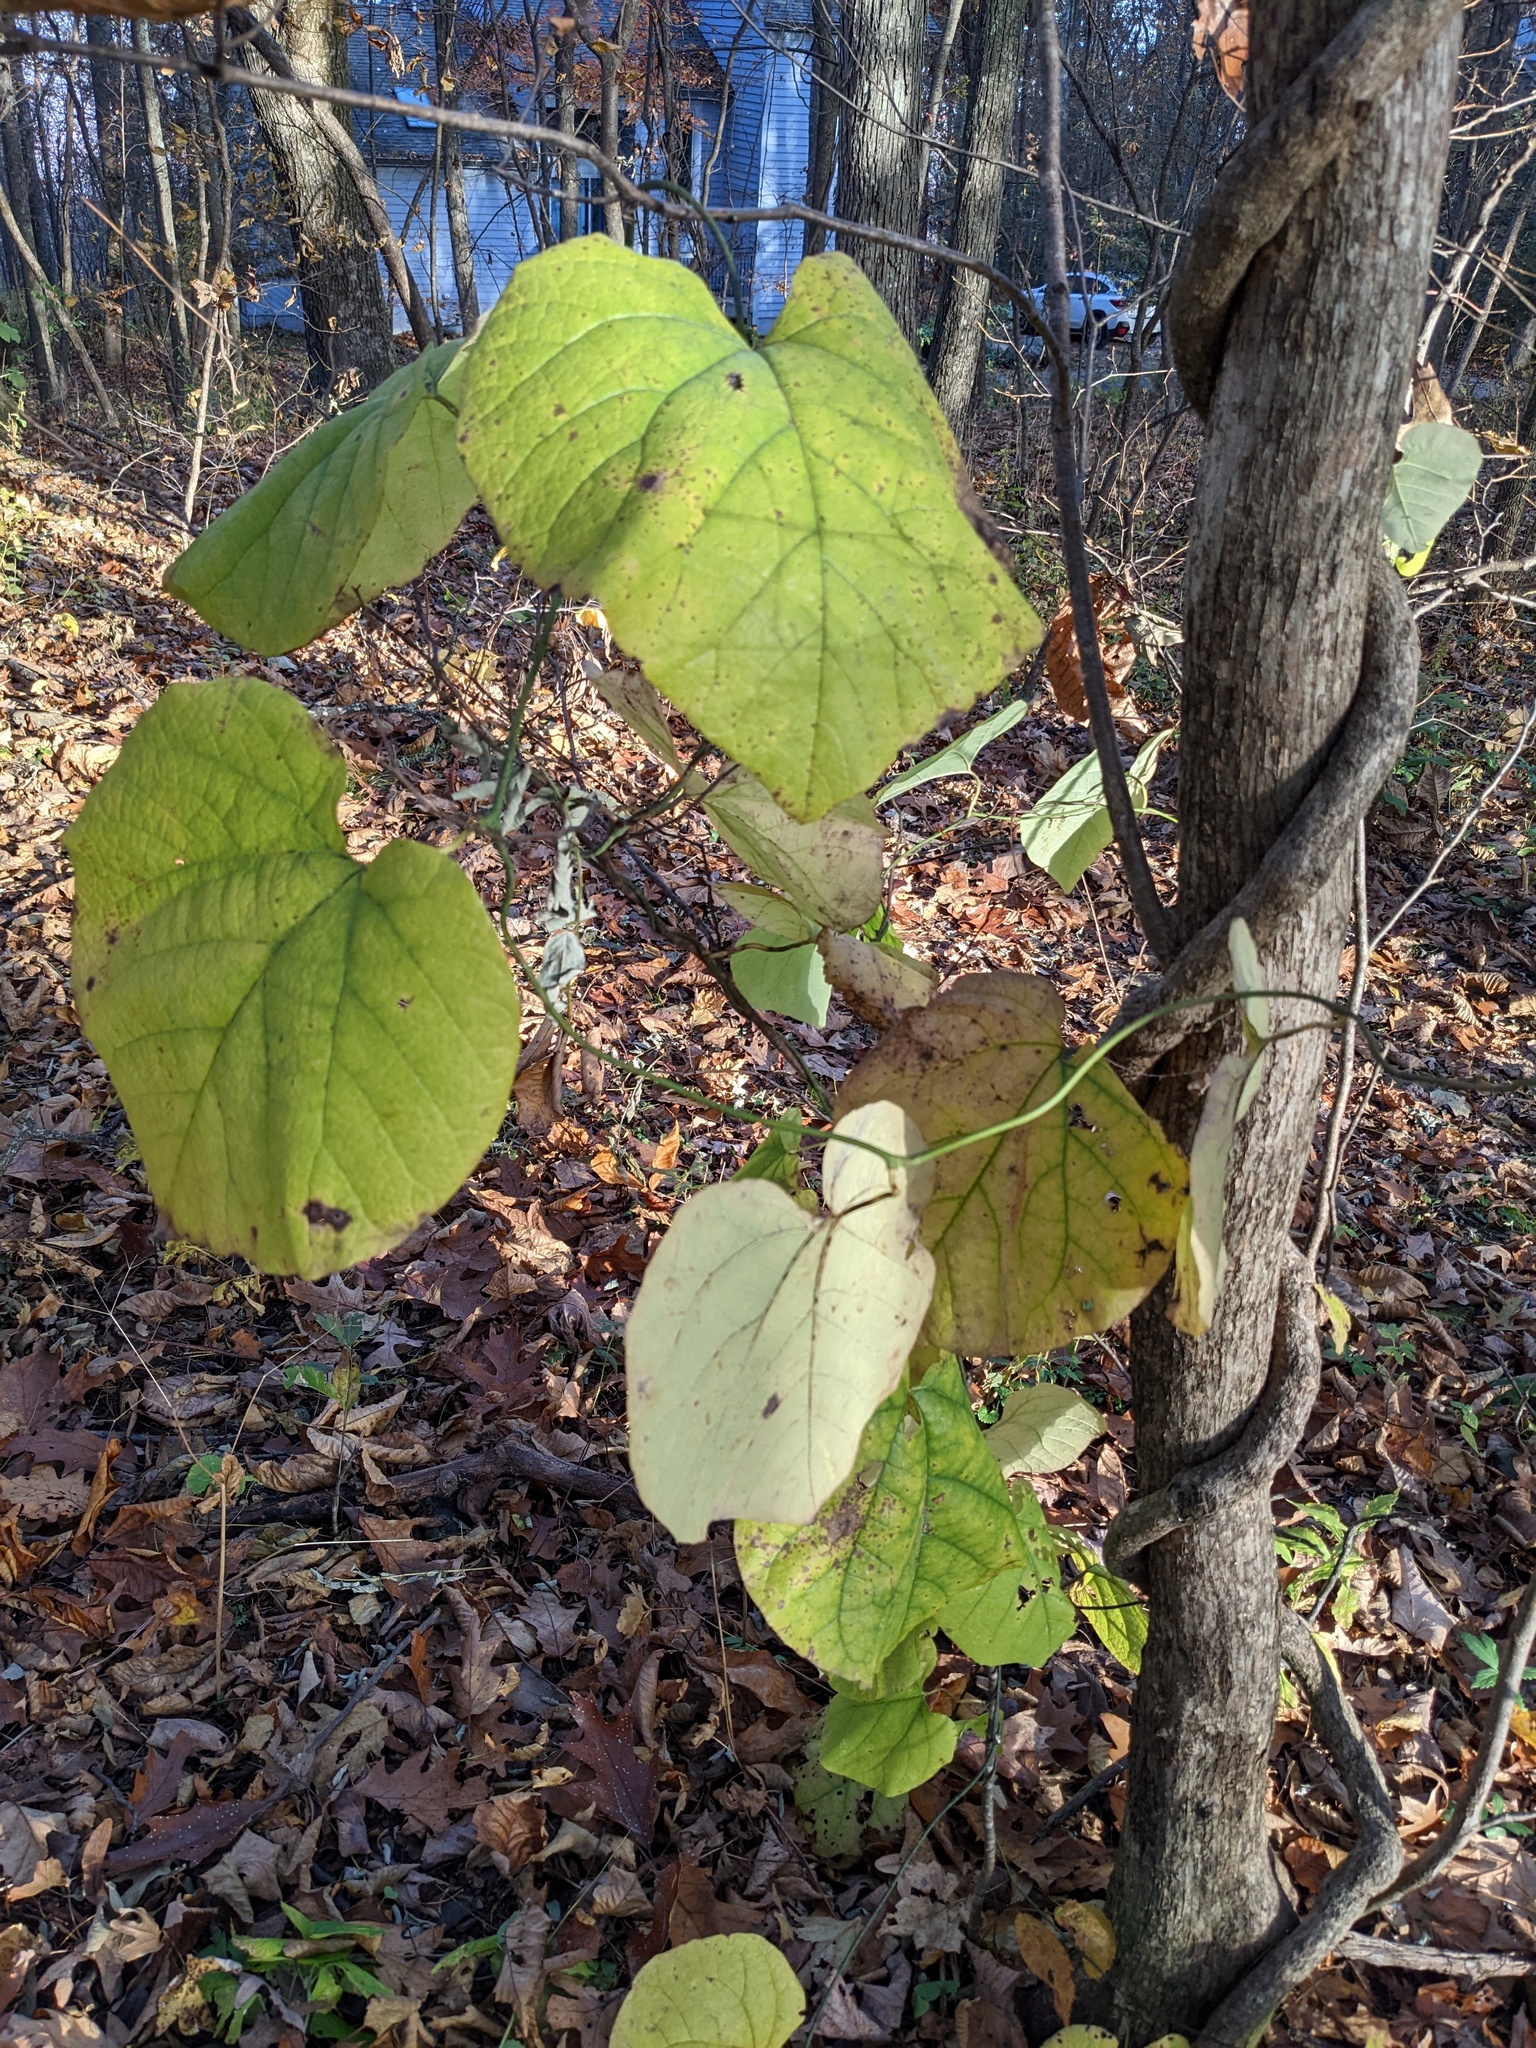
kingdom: Plantae
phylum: Tracheophyta
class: Magnoliopsida
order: Piperales
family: Aristolochiaceae
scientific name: Aristolochiaceae
